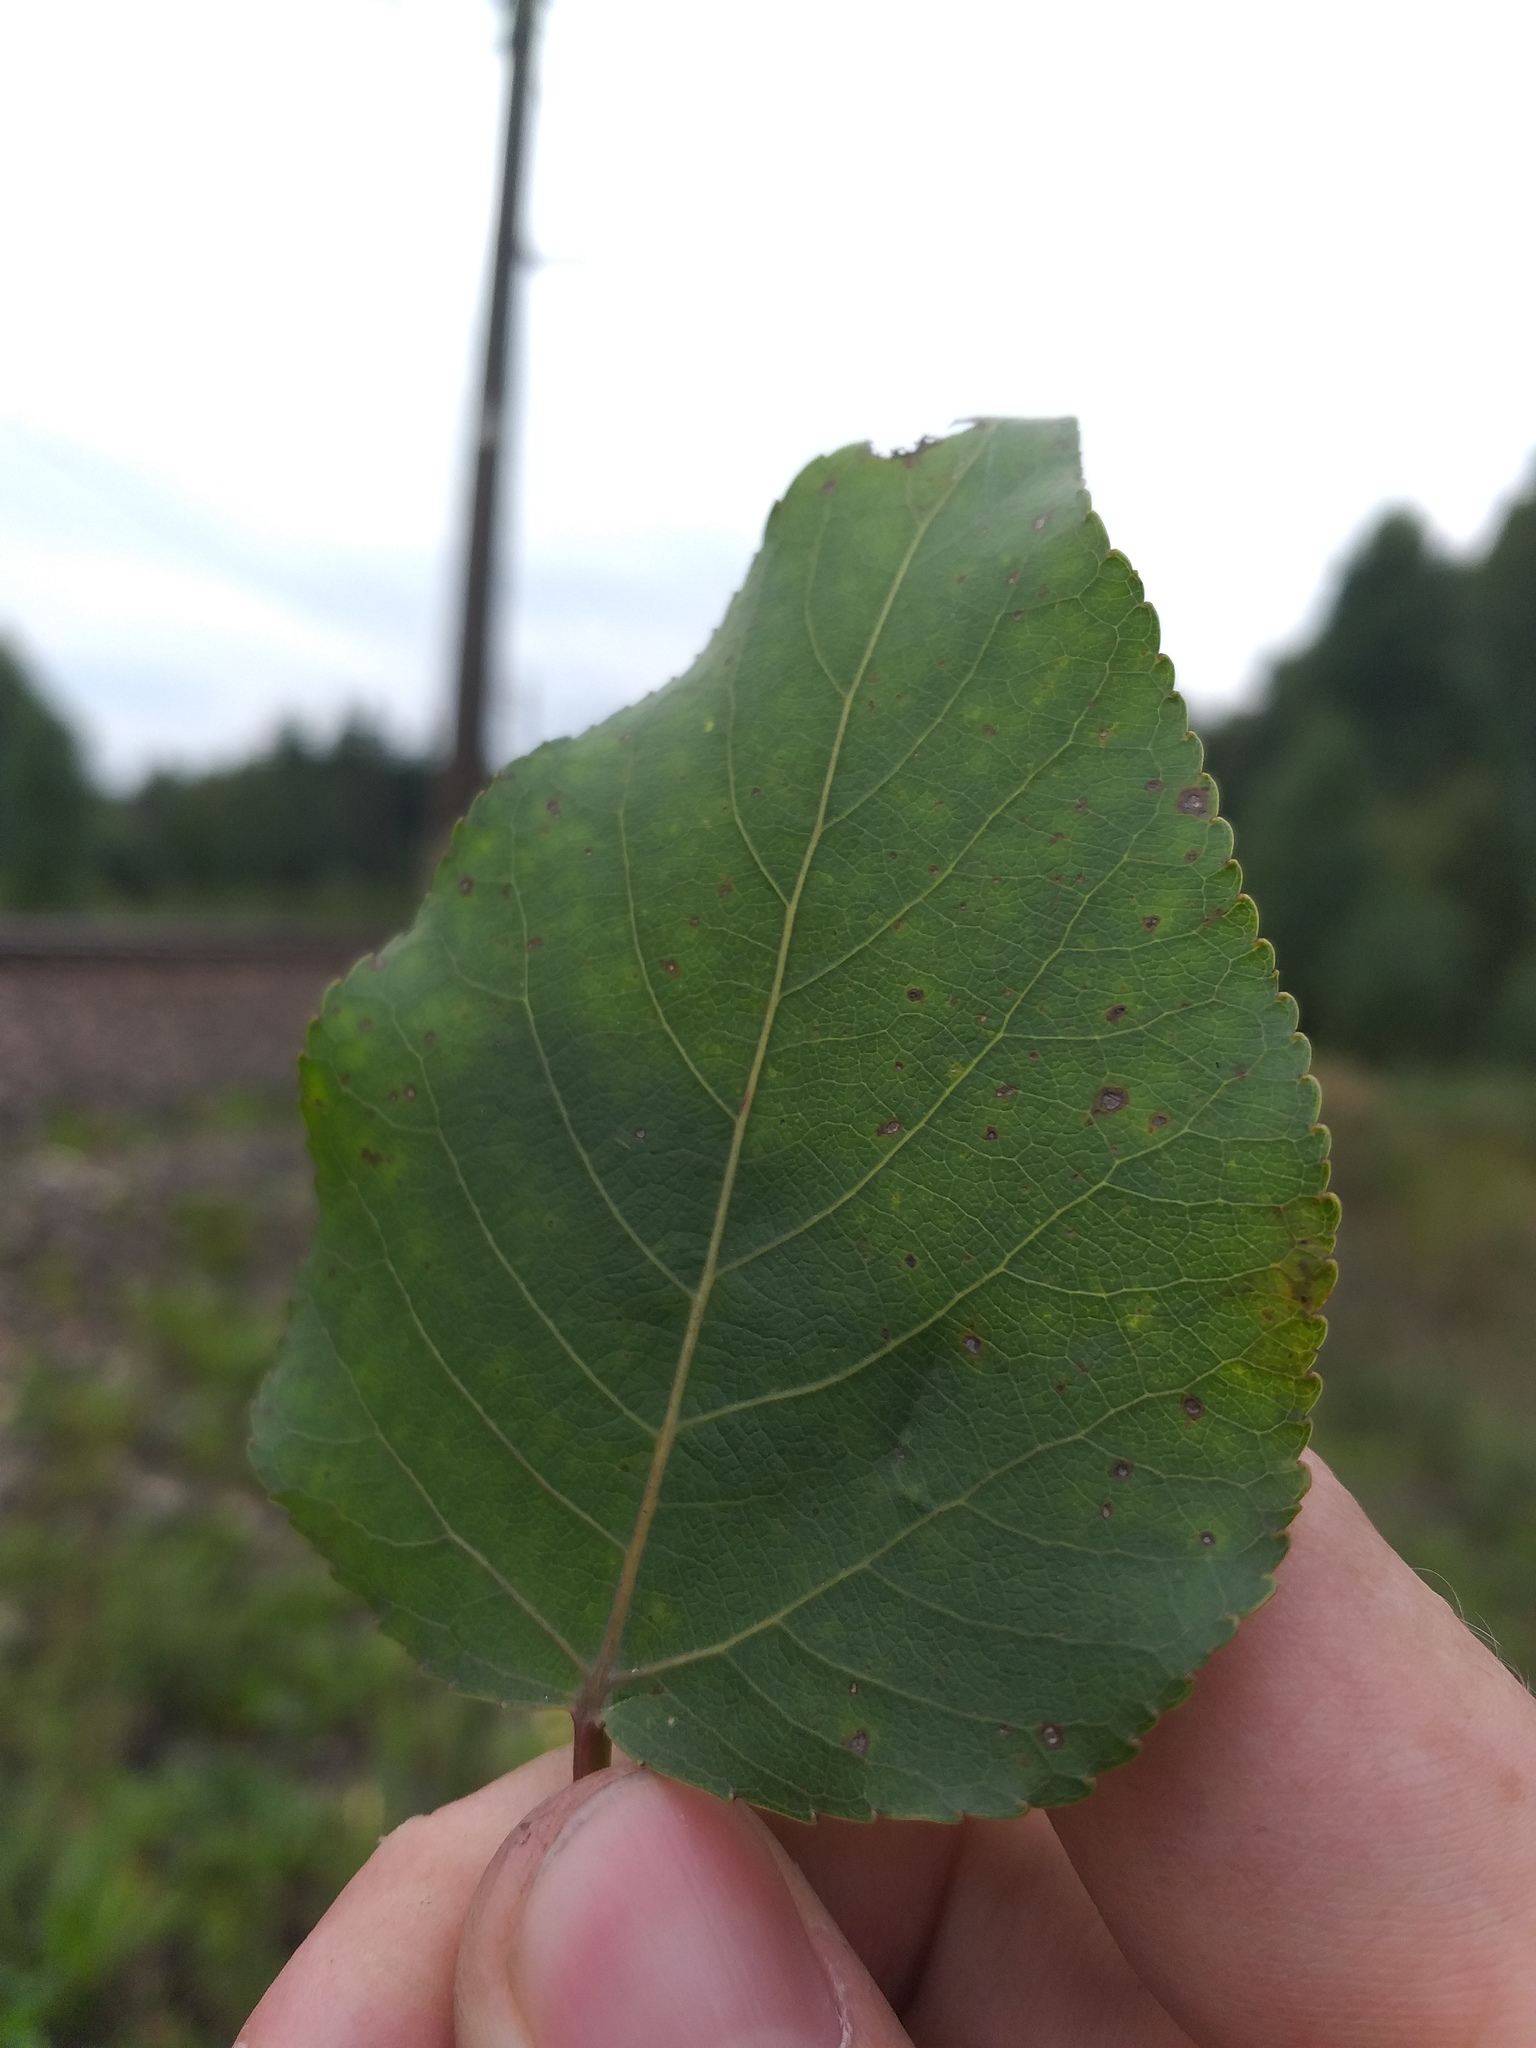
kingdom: Plantae
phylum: Tracheophyta
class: Magnoliopsida
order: Malpighiales
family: Salicaceae
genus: Populus
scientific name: Populus
